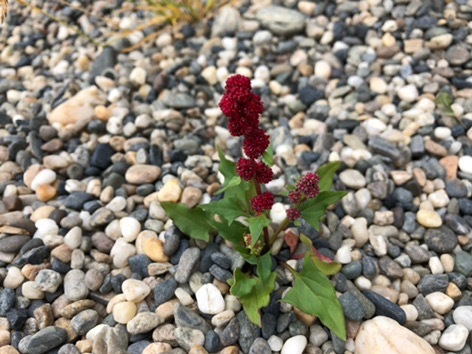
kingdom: Plantae
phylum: Tracheophyta
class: Magnoliopsida
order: Caryophyllales
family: Amaranthaceae
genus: Blitum
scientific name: Blitum capitatum
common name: Strawberry-blight
